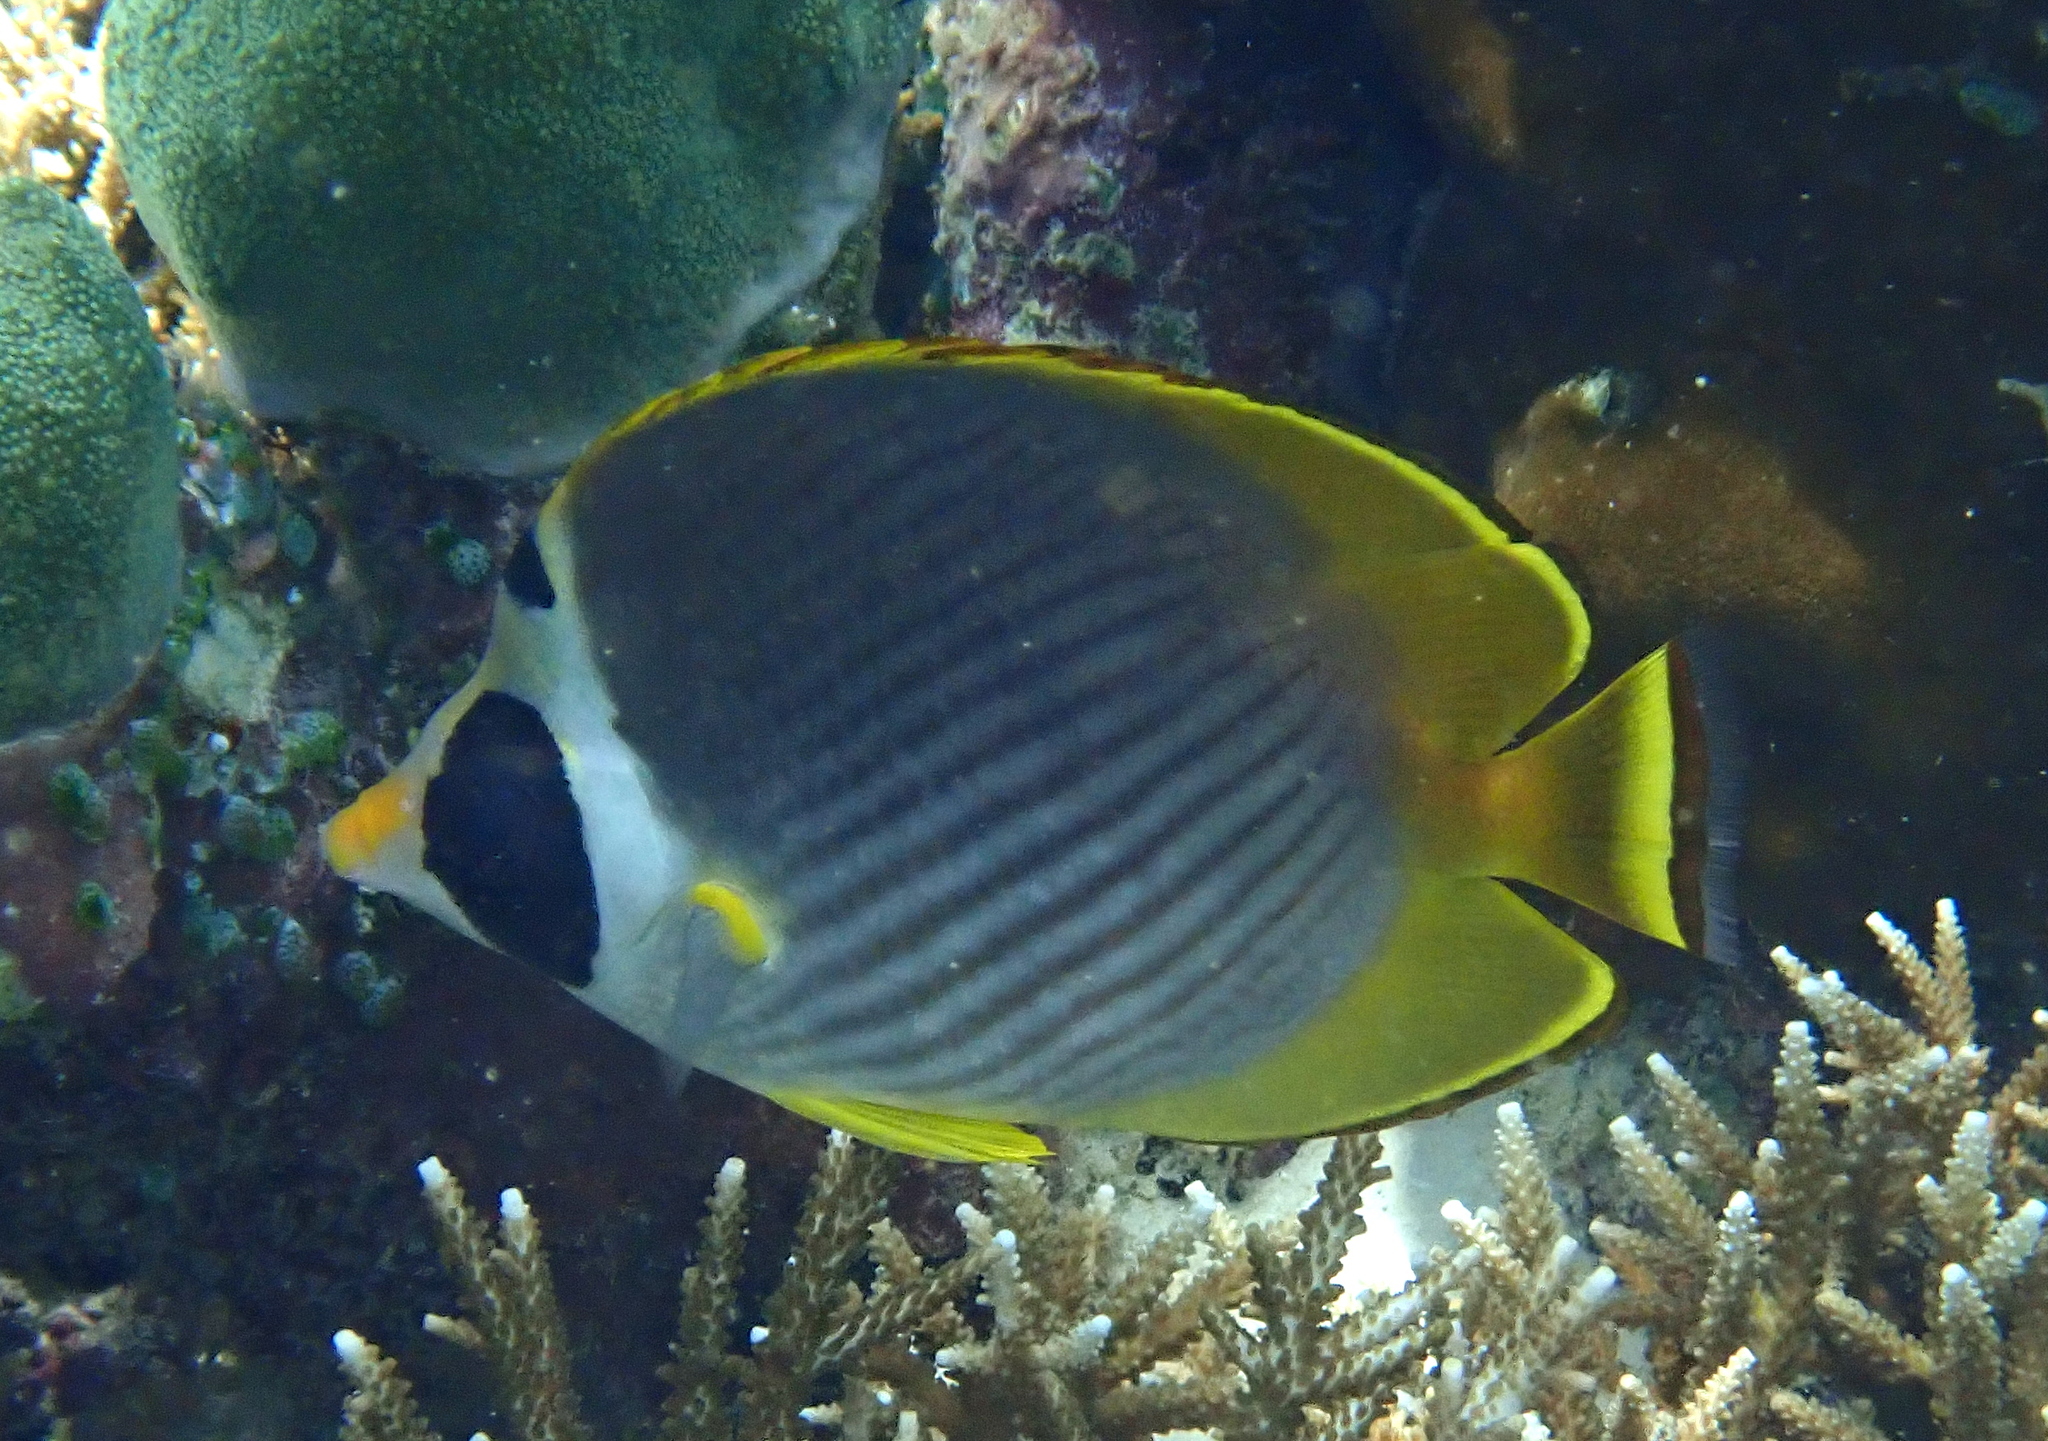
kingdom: Animalia
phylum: Chordata
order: Perciformes
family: Chaetodontidae
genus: Chaetodon
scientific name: Chaetodon adiergastos
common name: Eye-patch butterflyfish
